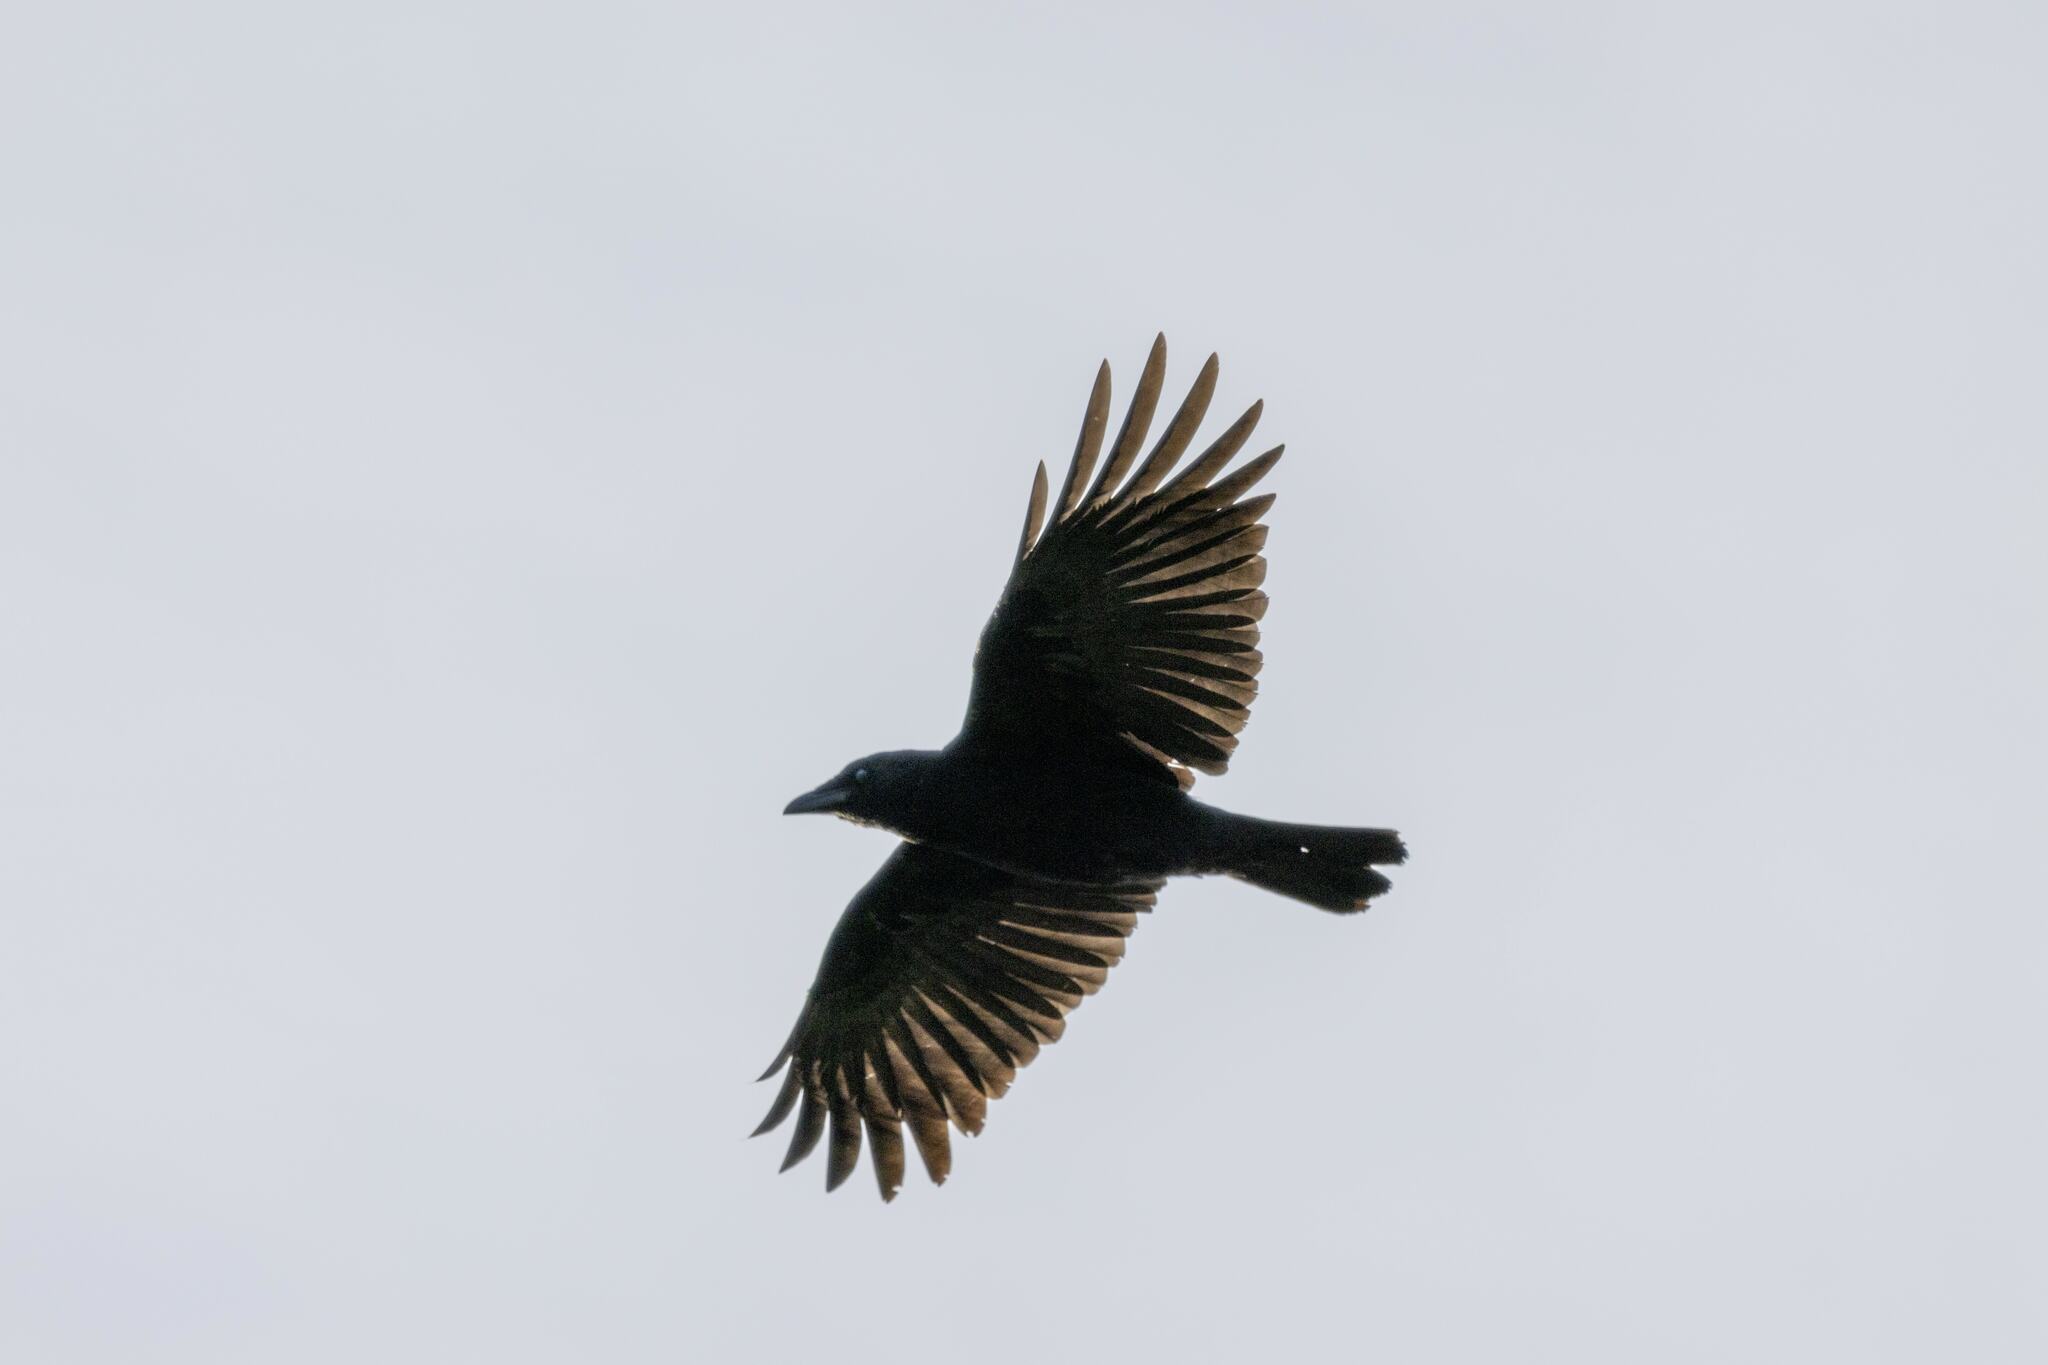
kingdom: Animalia
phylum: Chordata
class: Aves
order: Passeriformes
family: Corvidae
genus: Corvus
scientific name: Corvus corone
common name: Carrion crow
